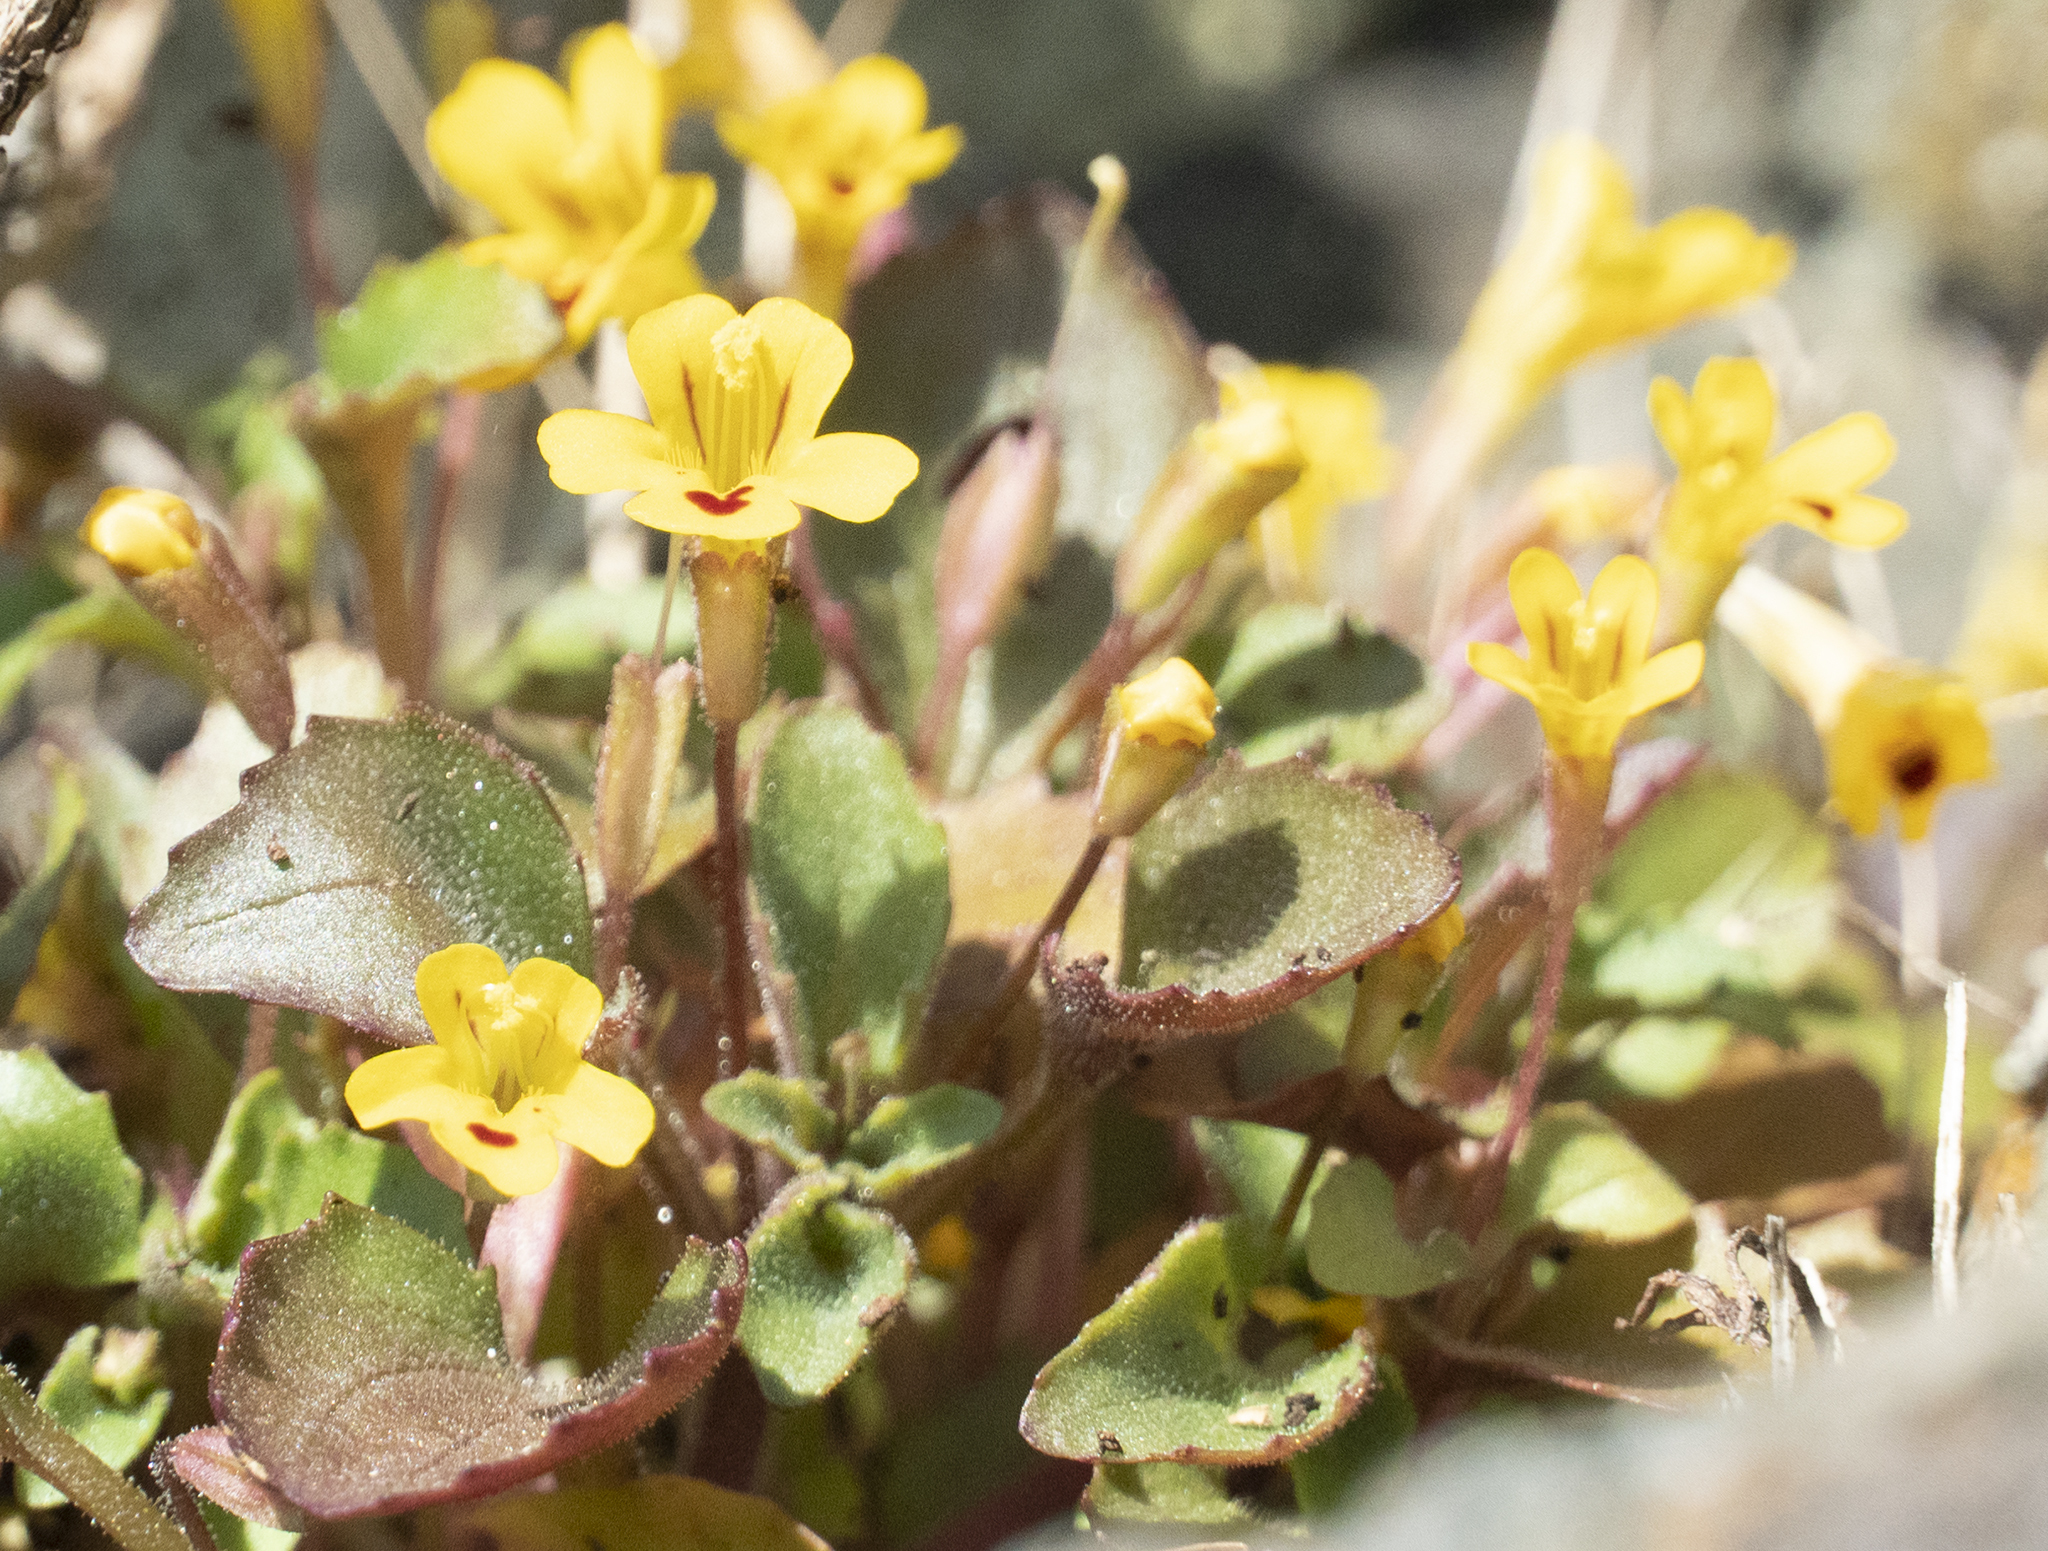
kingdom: Plantae
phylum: Tracheophyta
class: Magnoliopsida
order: Lamiales
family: Phrymaceae
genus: Erythranthe
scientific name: Erythranthe alsinoides
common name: Chickweed monkeyflower
